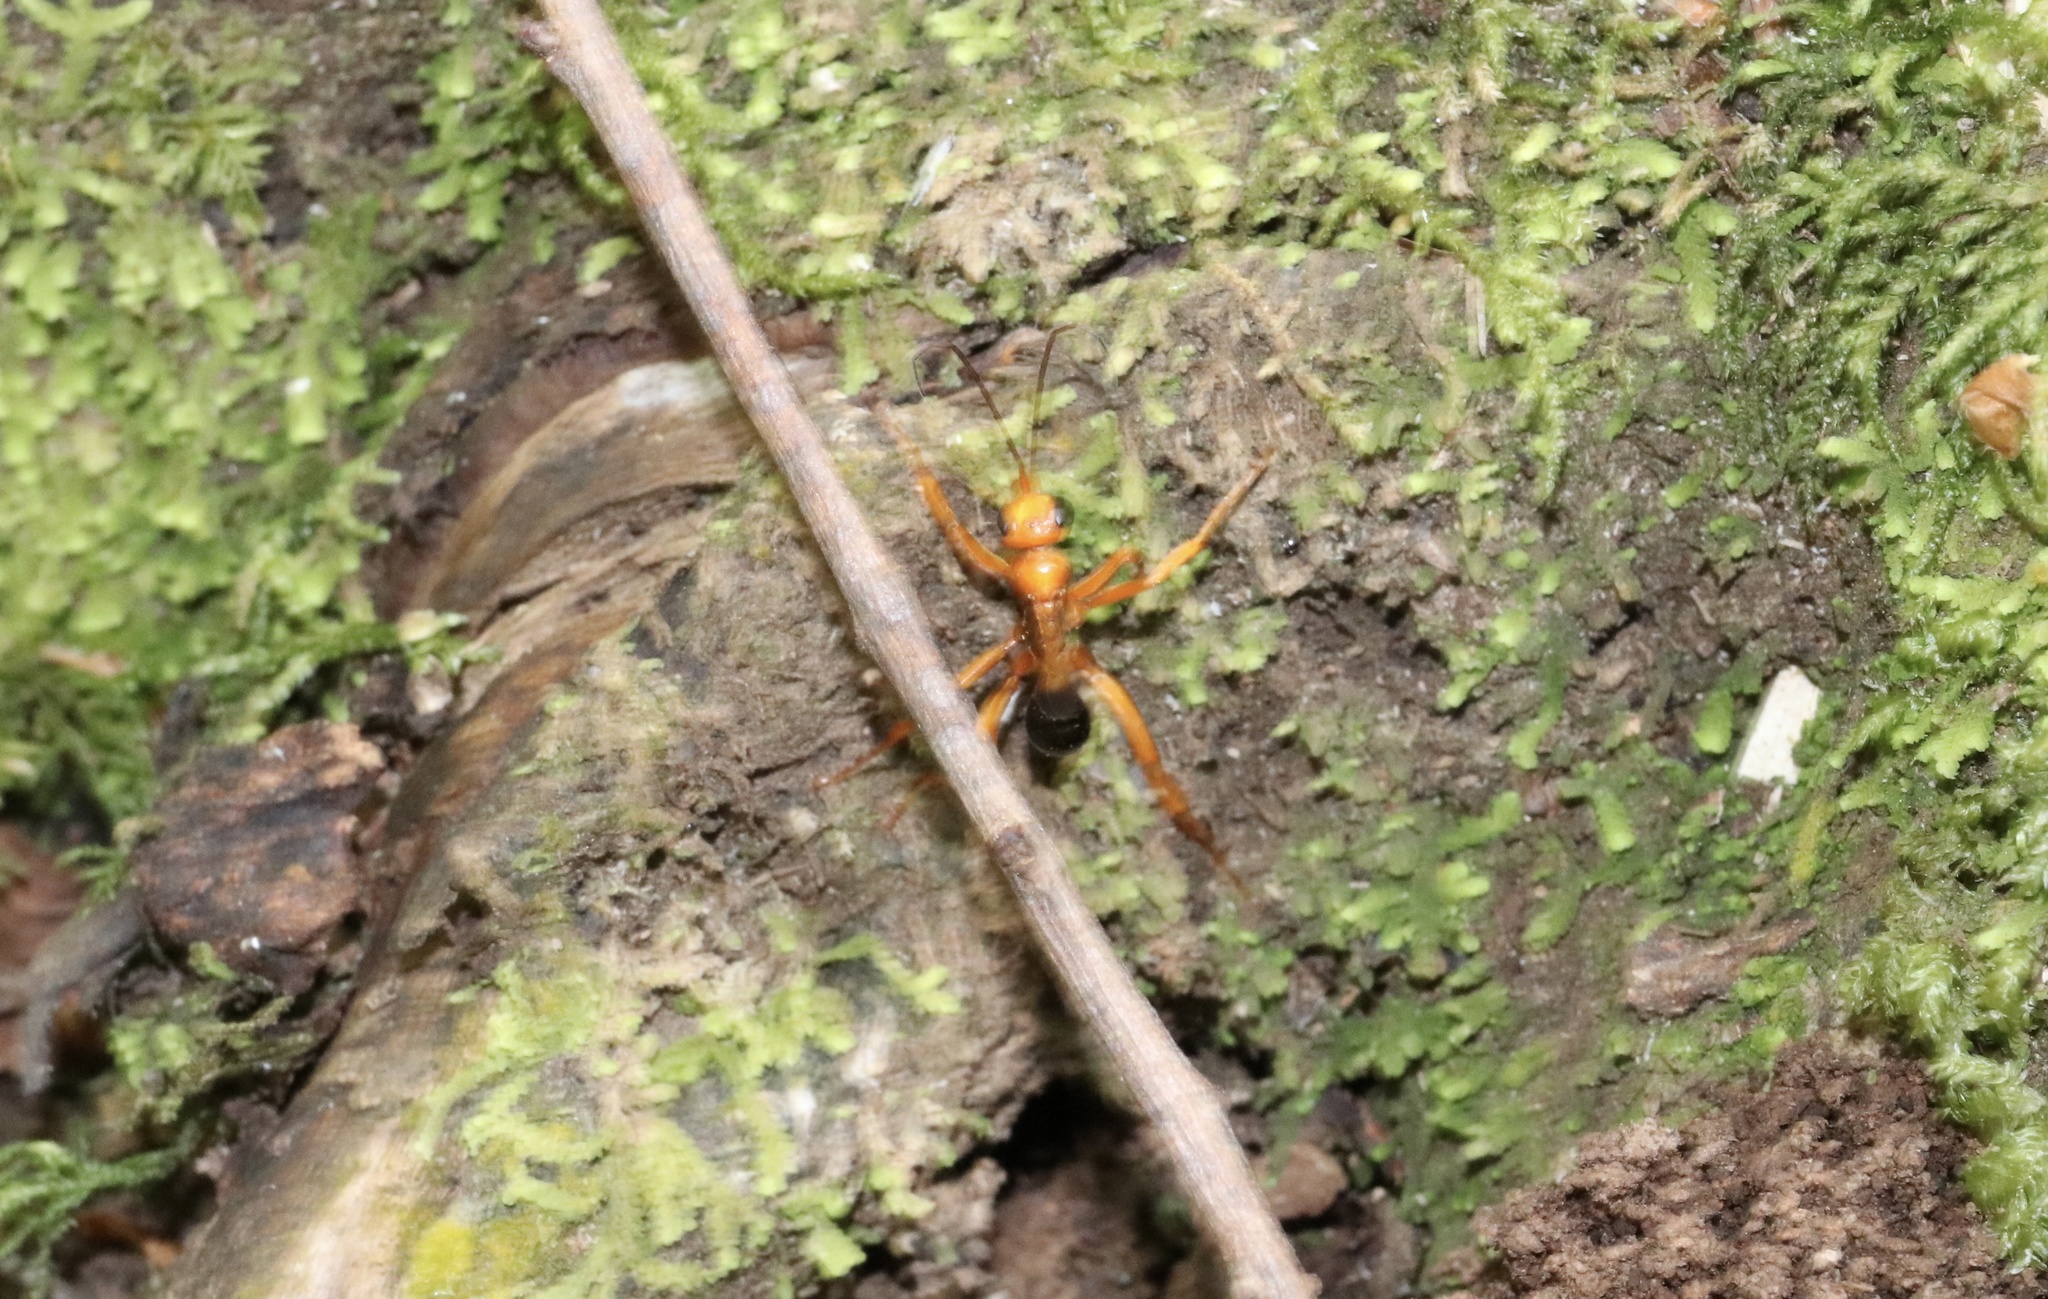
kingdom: Animalia
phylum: Arthropoda
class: Insecta
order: Hymenoptera
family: Pompilidae
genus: Sphictostethus
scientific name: Sphictostethus minus
